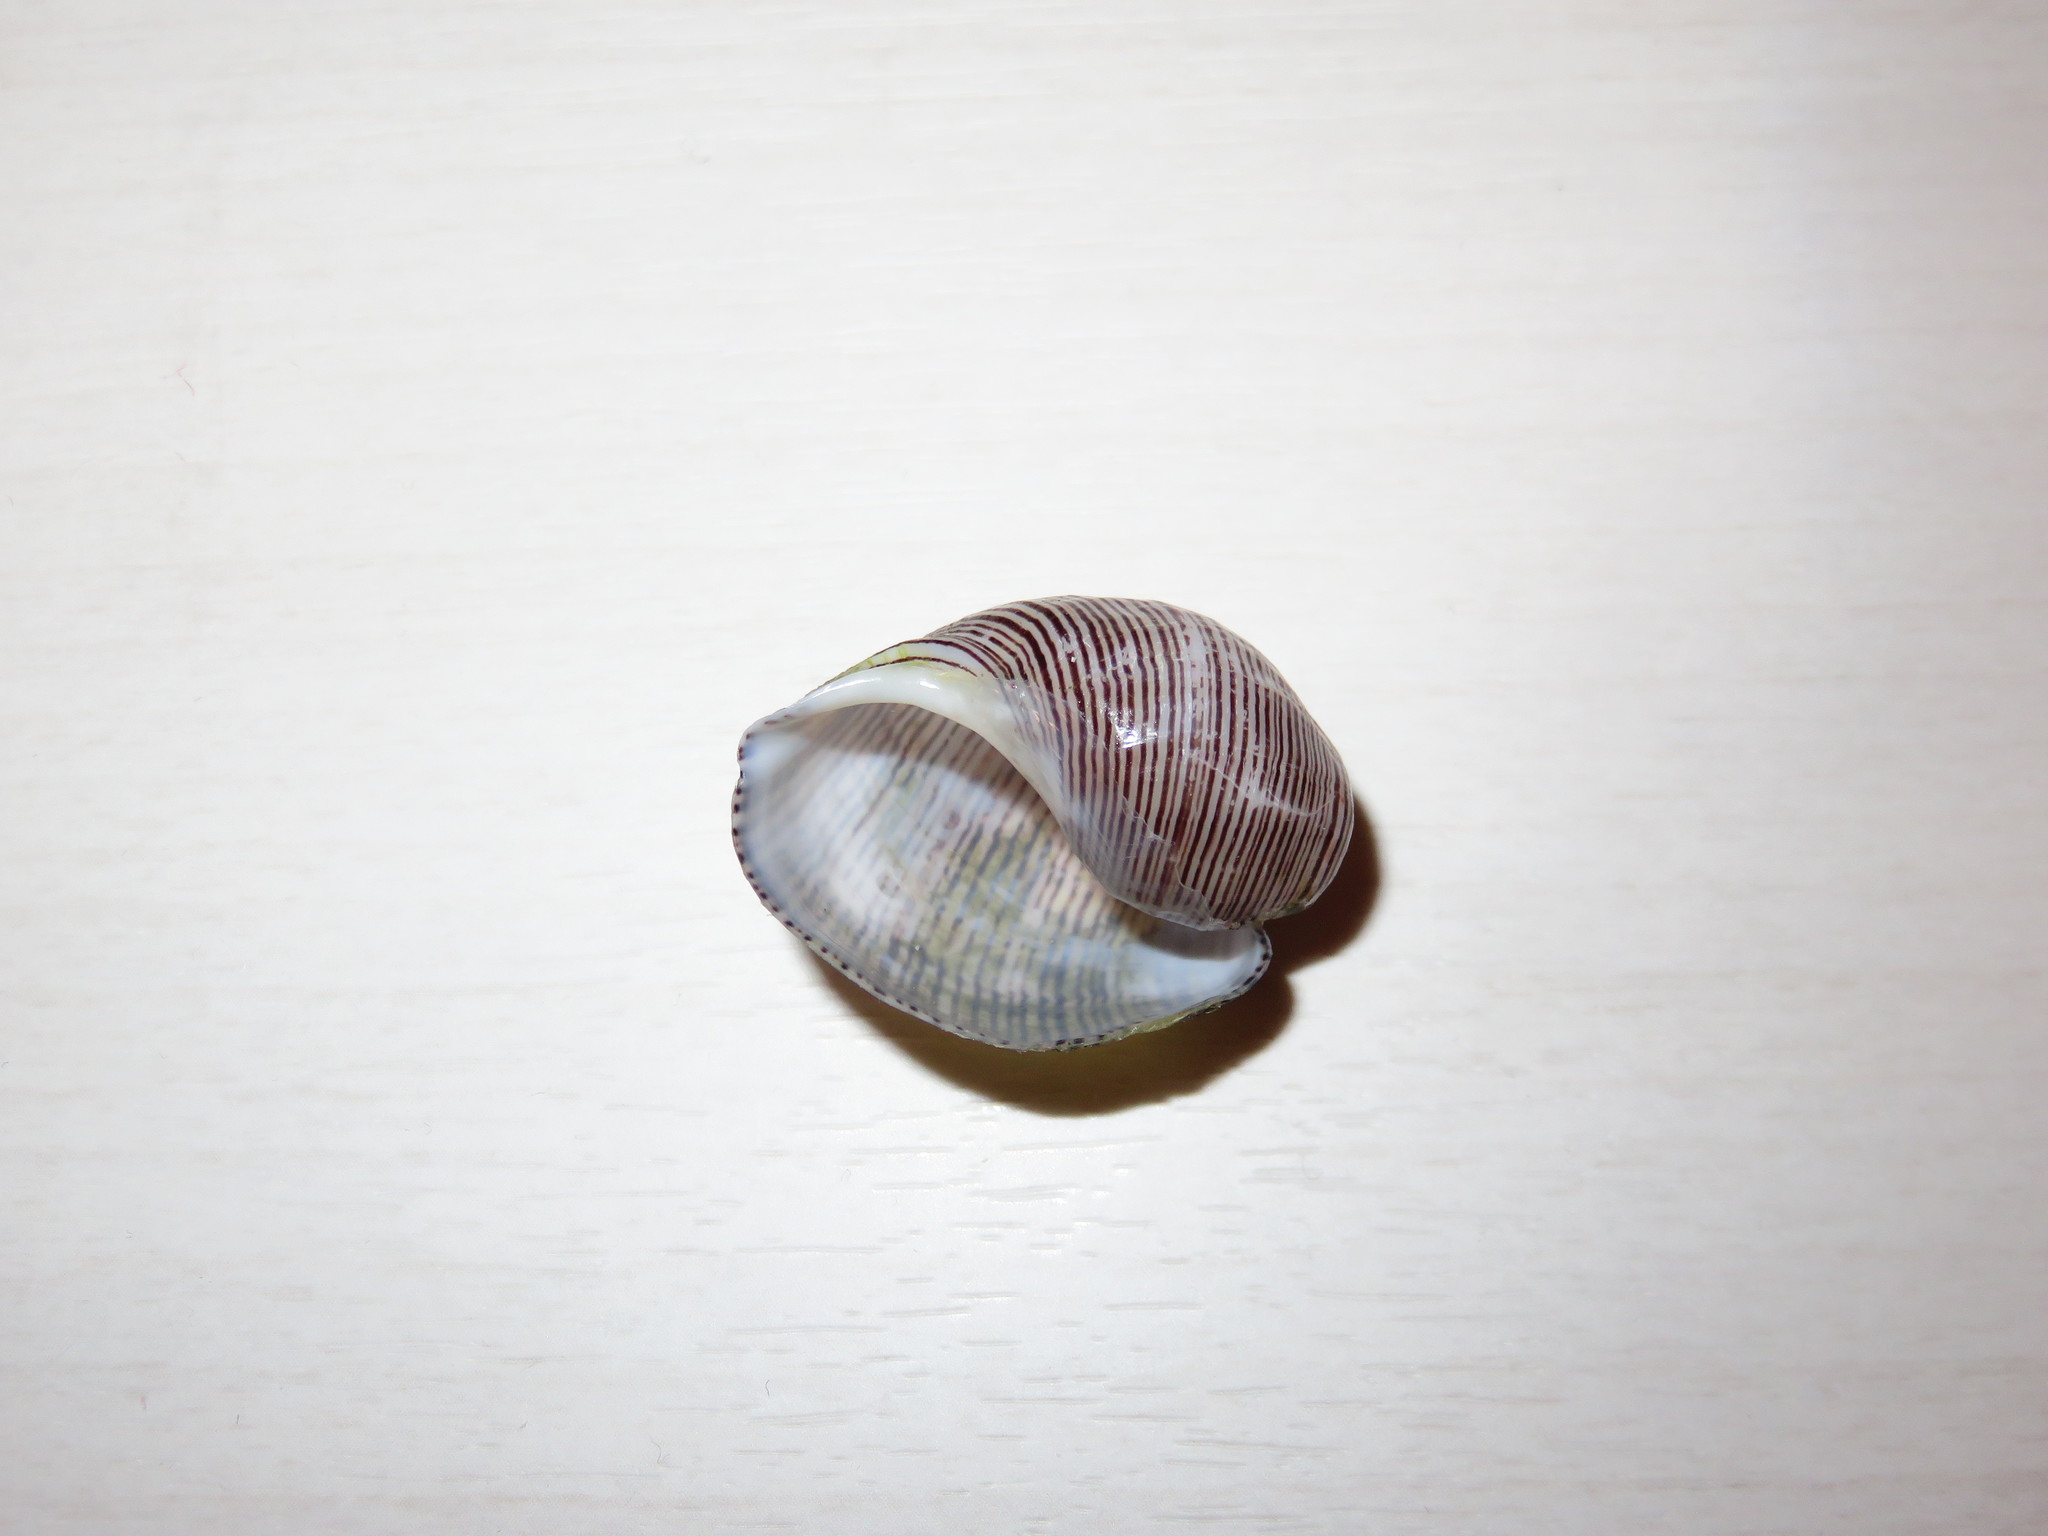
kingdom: Animalia
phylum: Mollusca
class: Gastropoda
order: Cephalaspidea
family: Aplustridae
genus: Hydatina
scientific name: Hydatina physis
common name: Brown-line paperbubble
